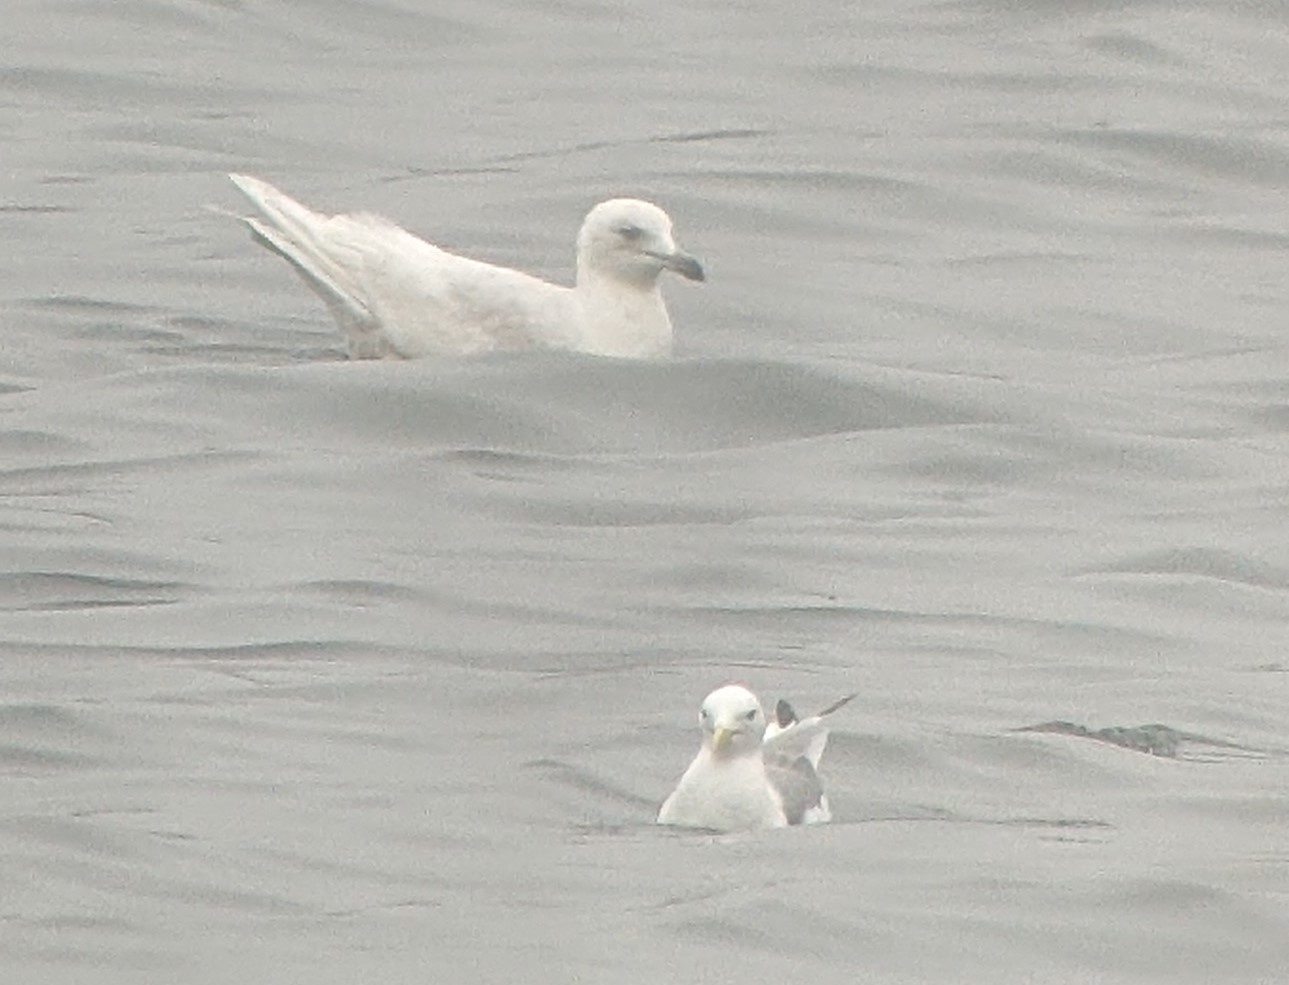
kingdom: Animalia
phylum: Chordata
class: Aves
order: Charadriiformes
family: Laridae
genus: Larus
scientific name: Larus glaucoides
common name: Iceland gull
